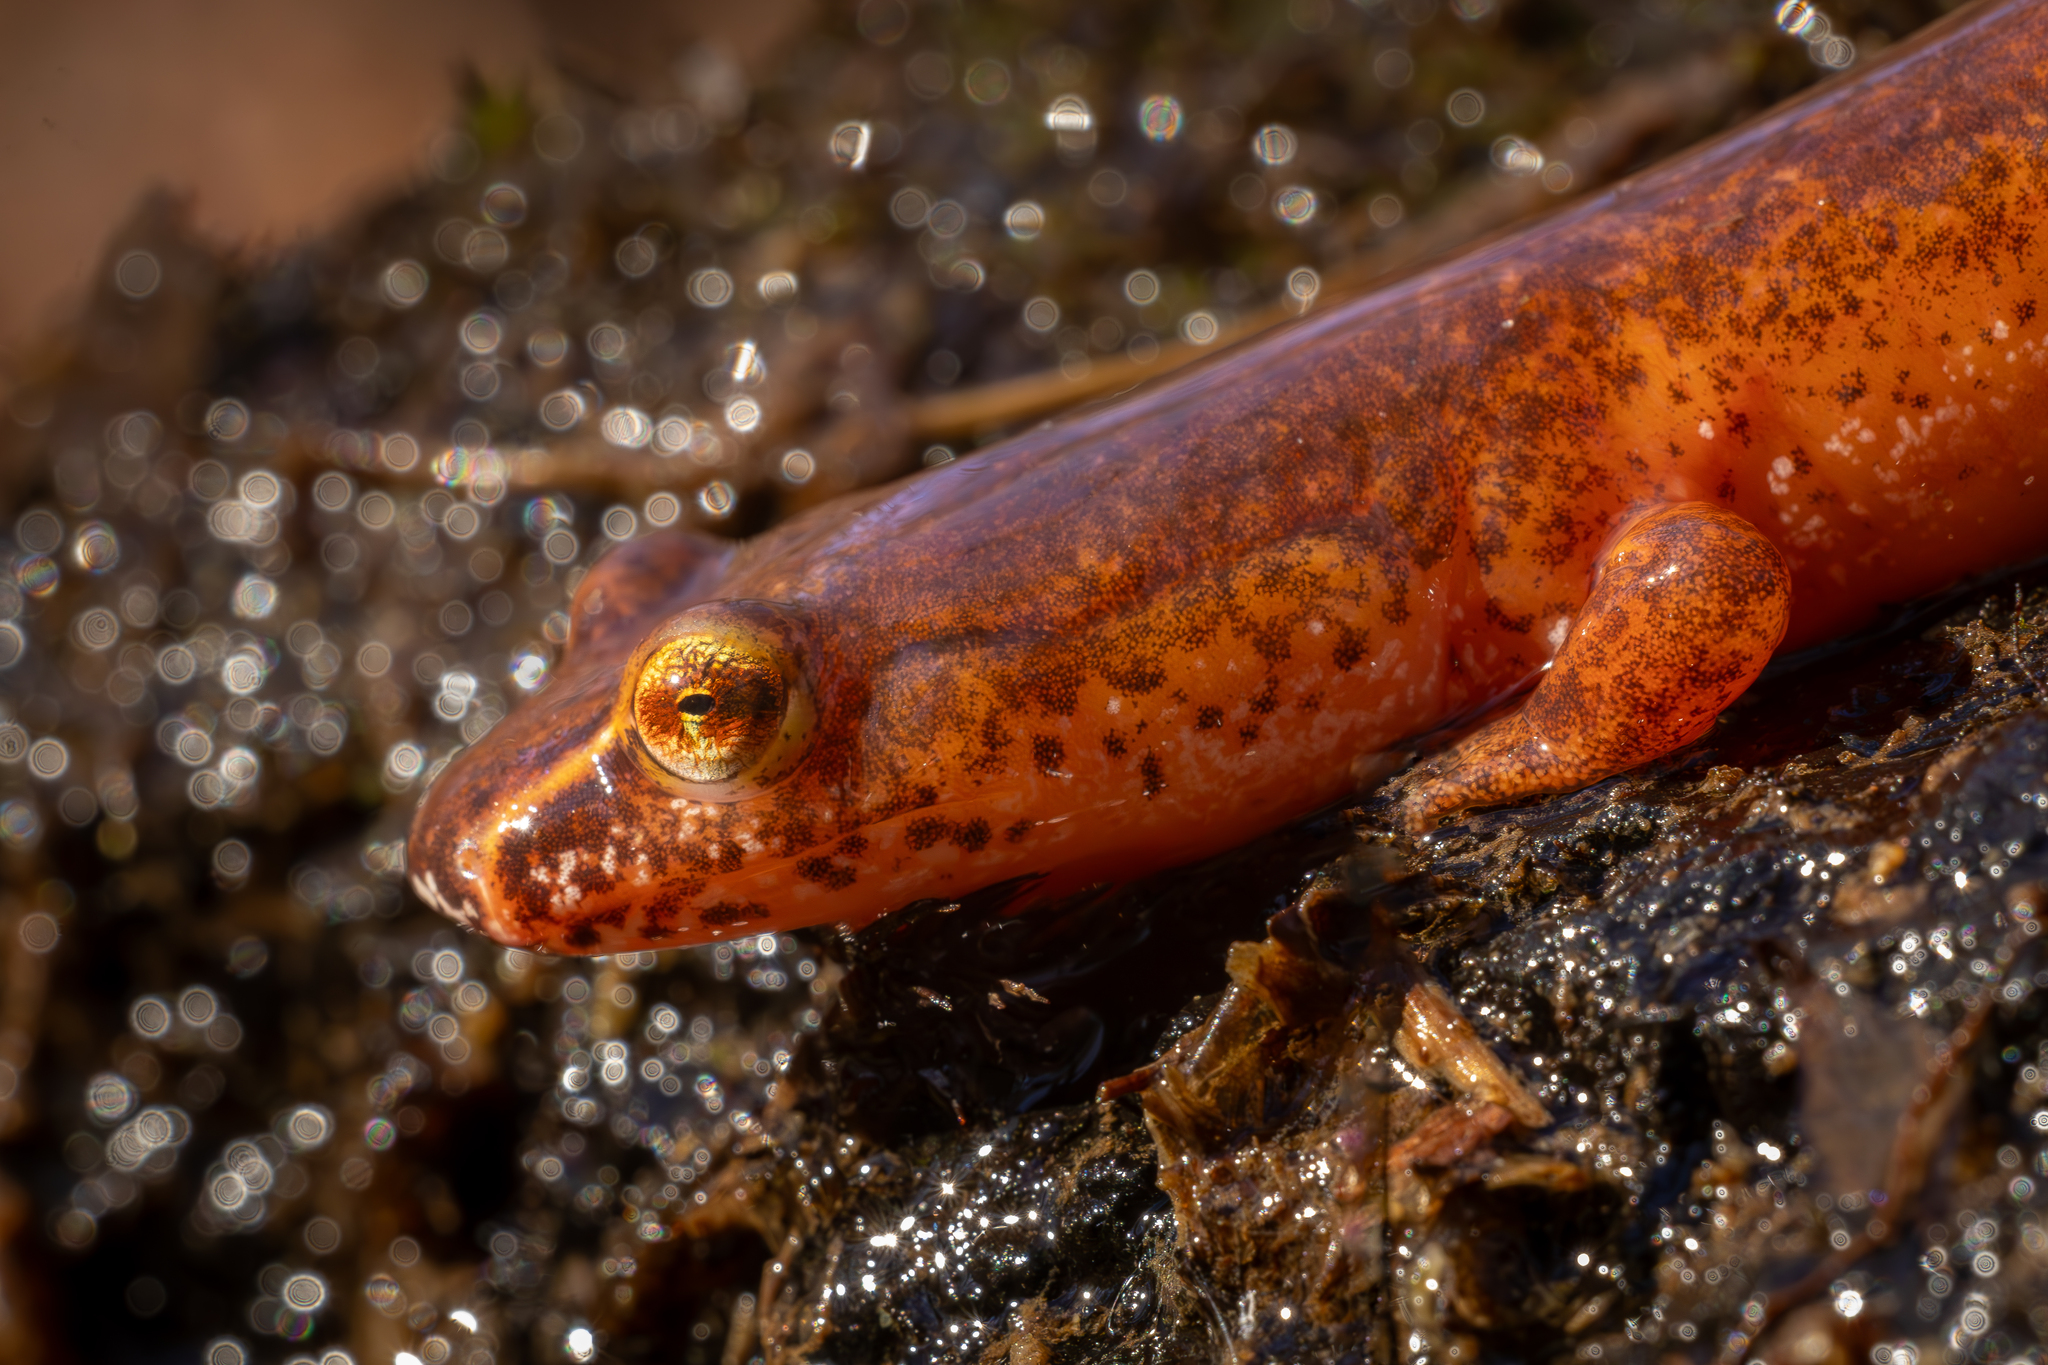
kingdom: Animalia
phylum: Chordata
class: Amphibia
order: Caudata
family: Plethodontidae
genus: Gyrinophilus
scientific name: Gyrinophilus porphyriticus
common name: Spring salamander
